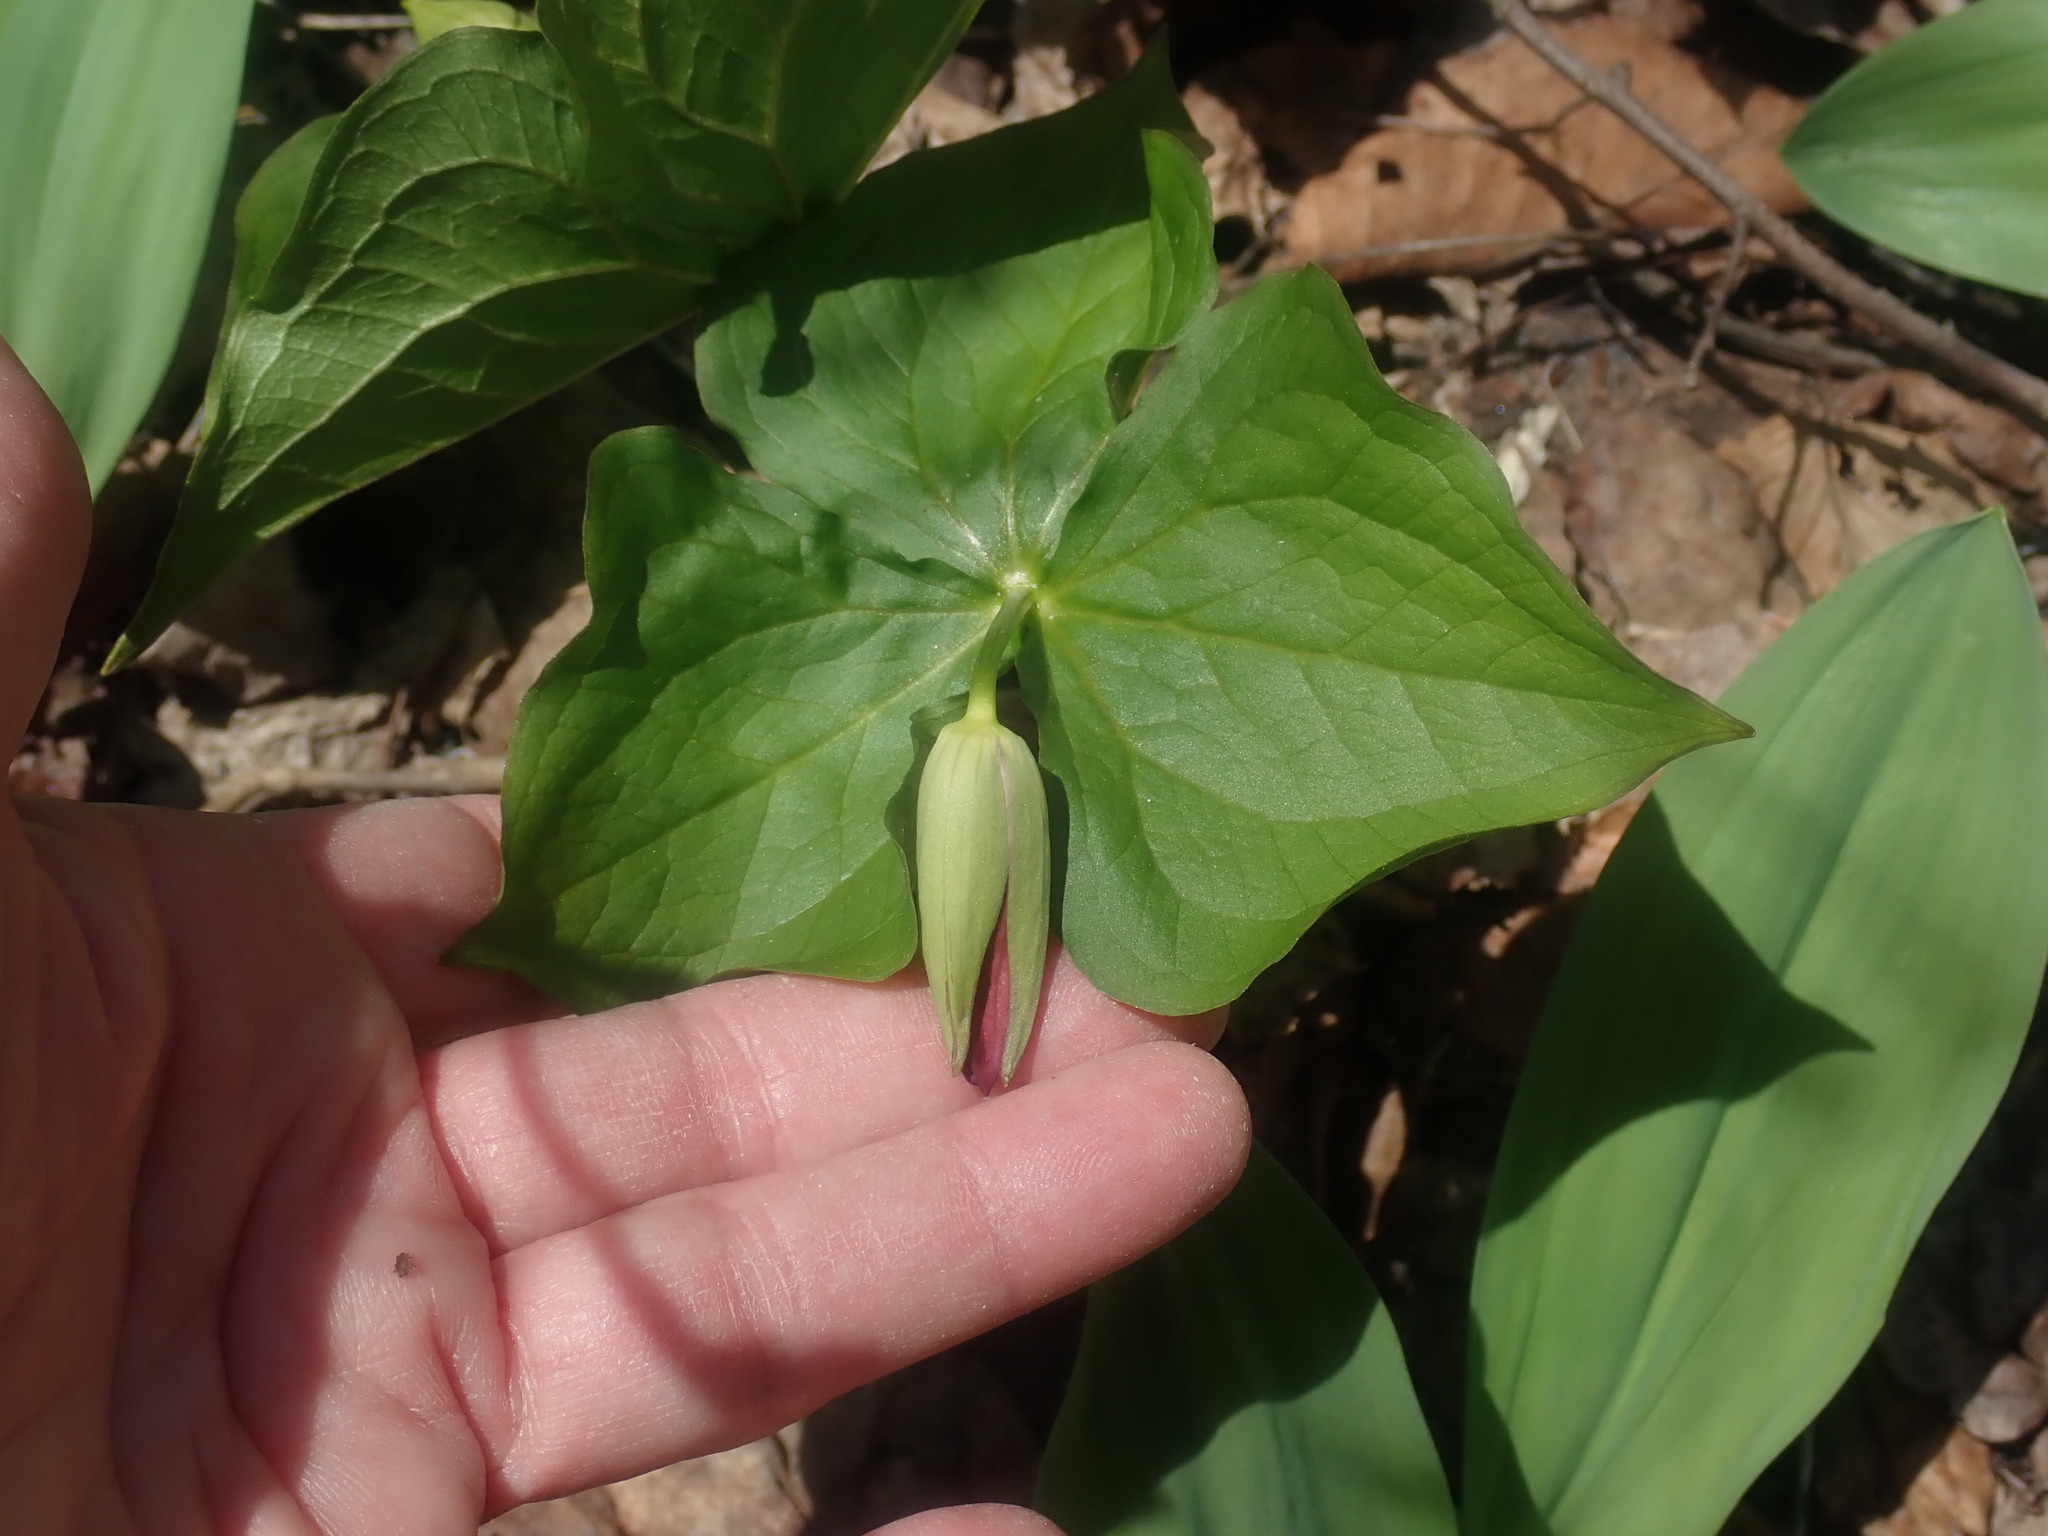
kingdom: Plantae
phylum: Tracheophyta
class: Liliopsida
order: Liliales
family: Melanthiaceae
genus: Trillium
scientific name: Trillium erectum
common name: Purple trillium
